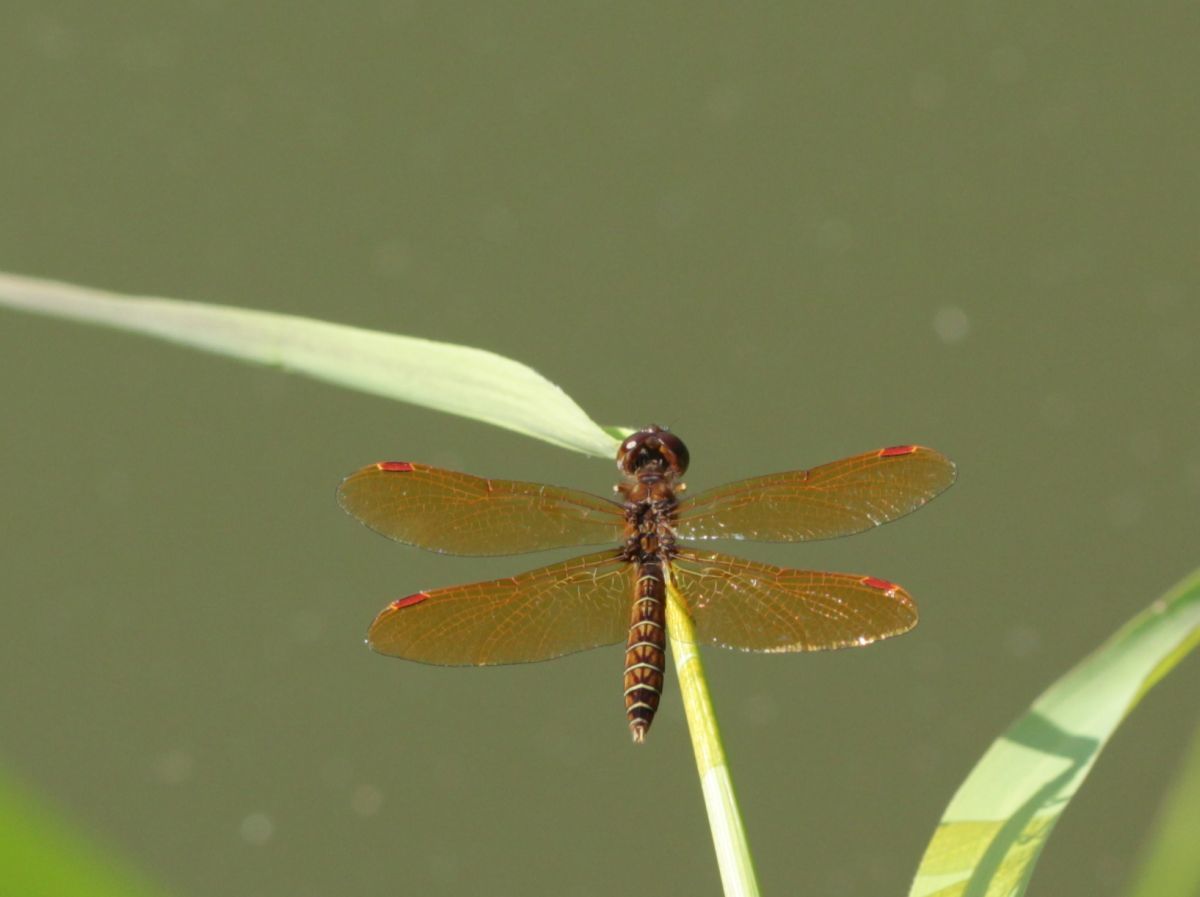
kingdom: Animalia
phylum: Arthropoda
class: Insecta
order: Odonata
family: Libellulidae
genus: Perithemis
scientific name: Perithemis tenera
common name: Eastern amberwing
